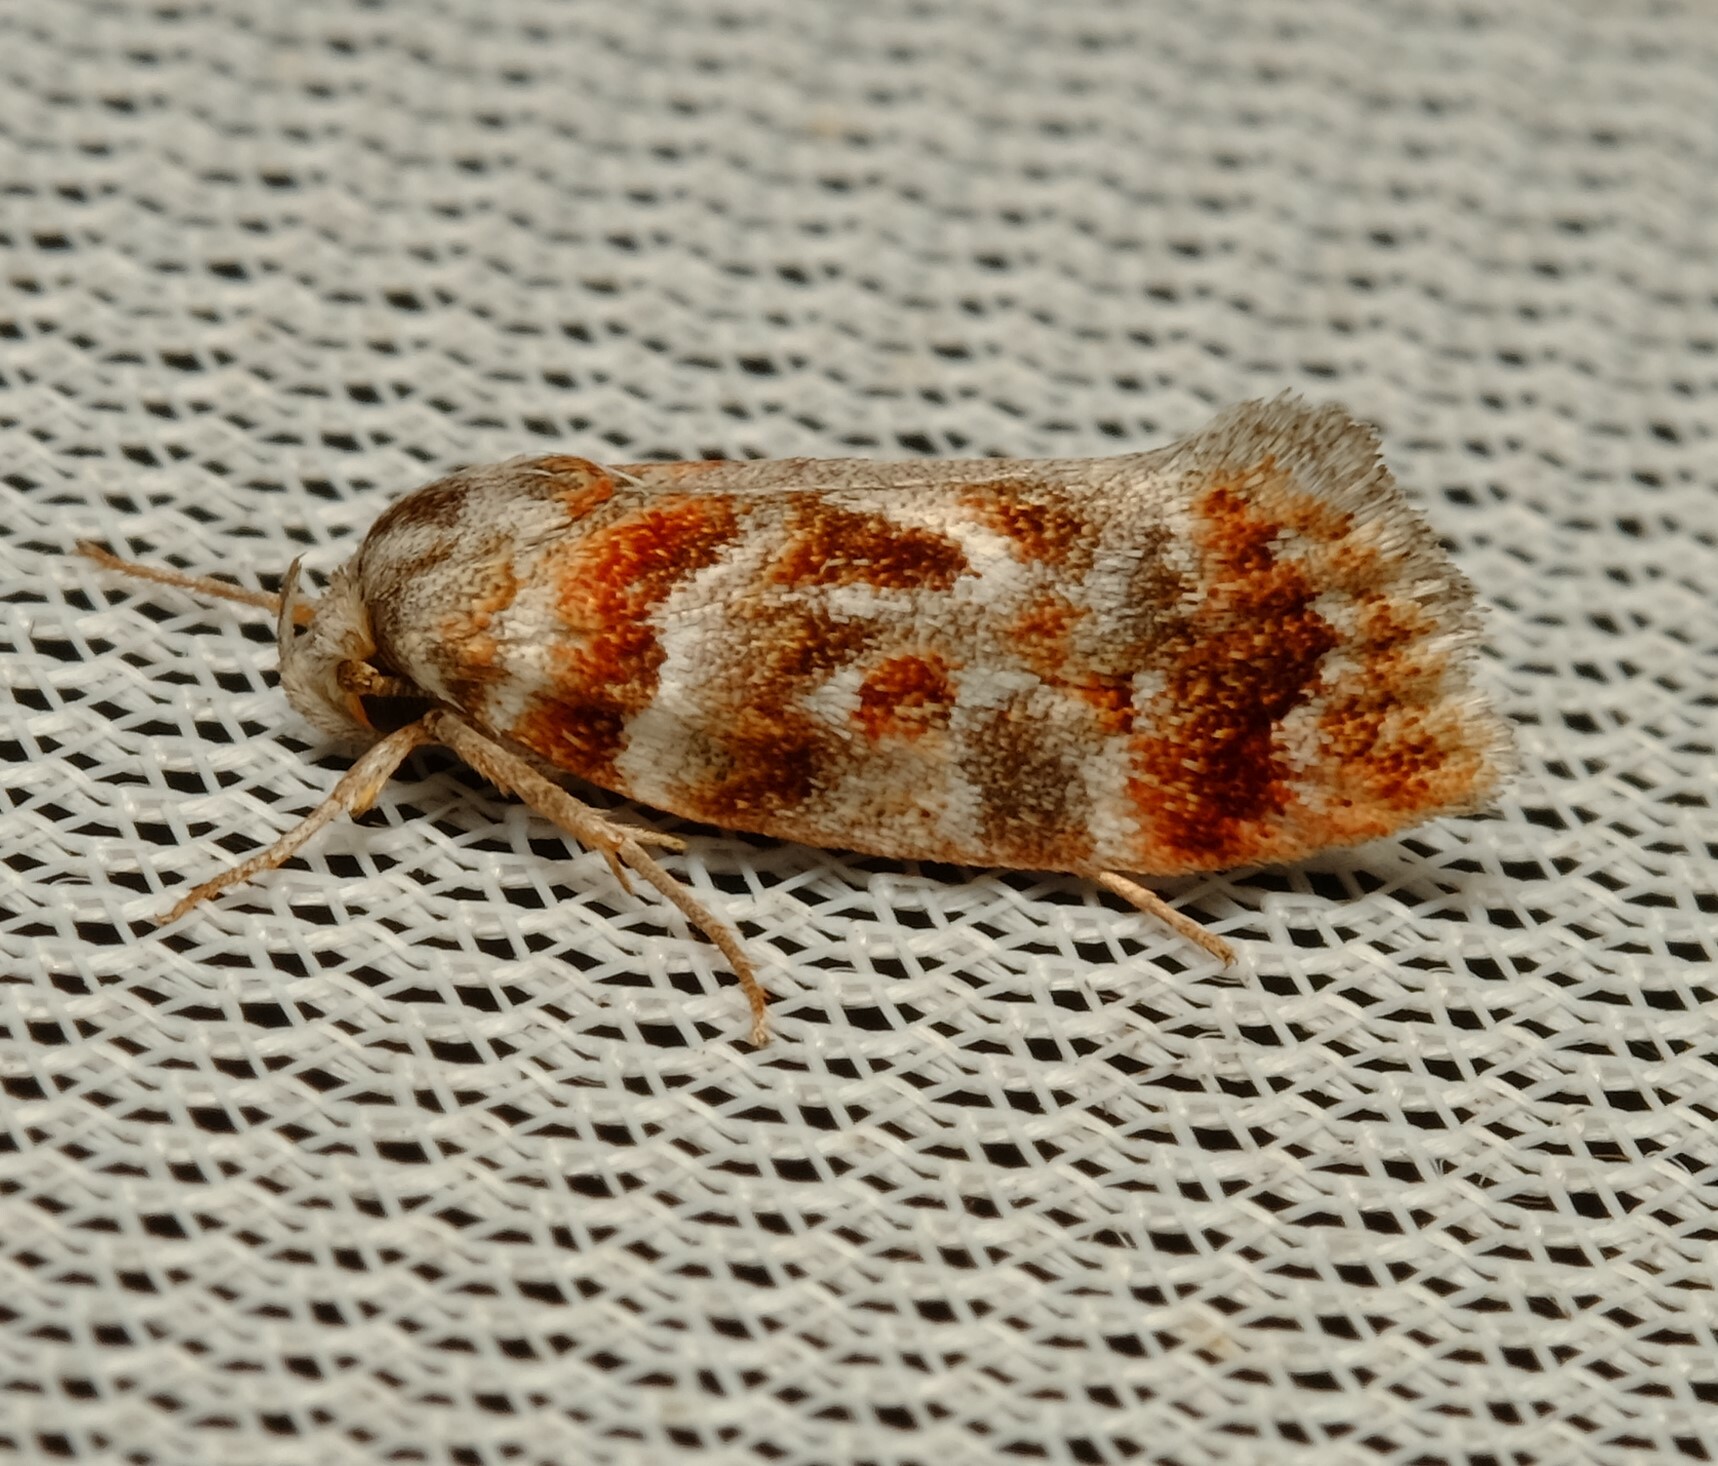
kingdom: Animalia
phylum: Arthropoda
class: Insecta
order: Lepidoptera
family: Oecophoridae
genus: Acmotoma
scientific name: Acmotoma magniferella
